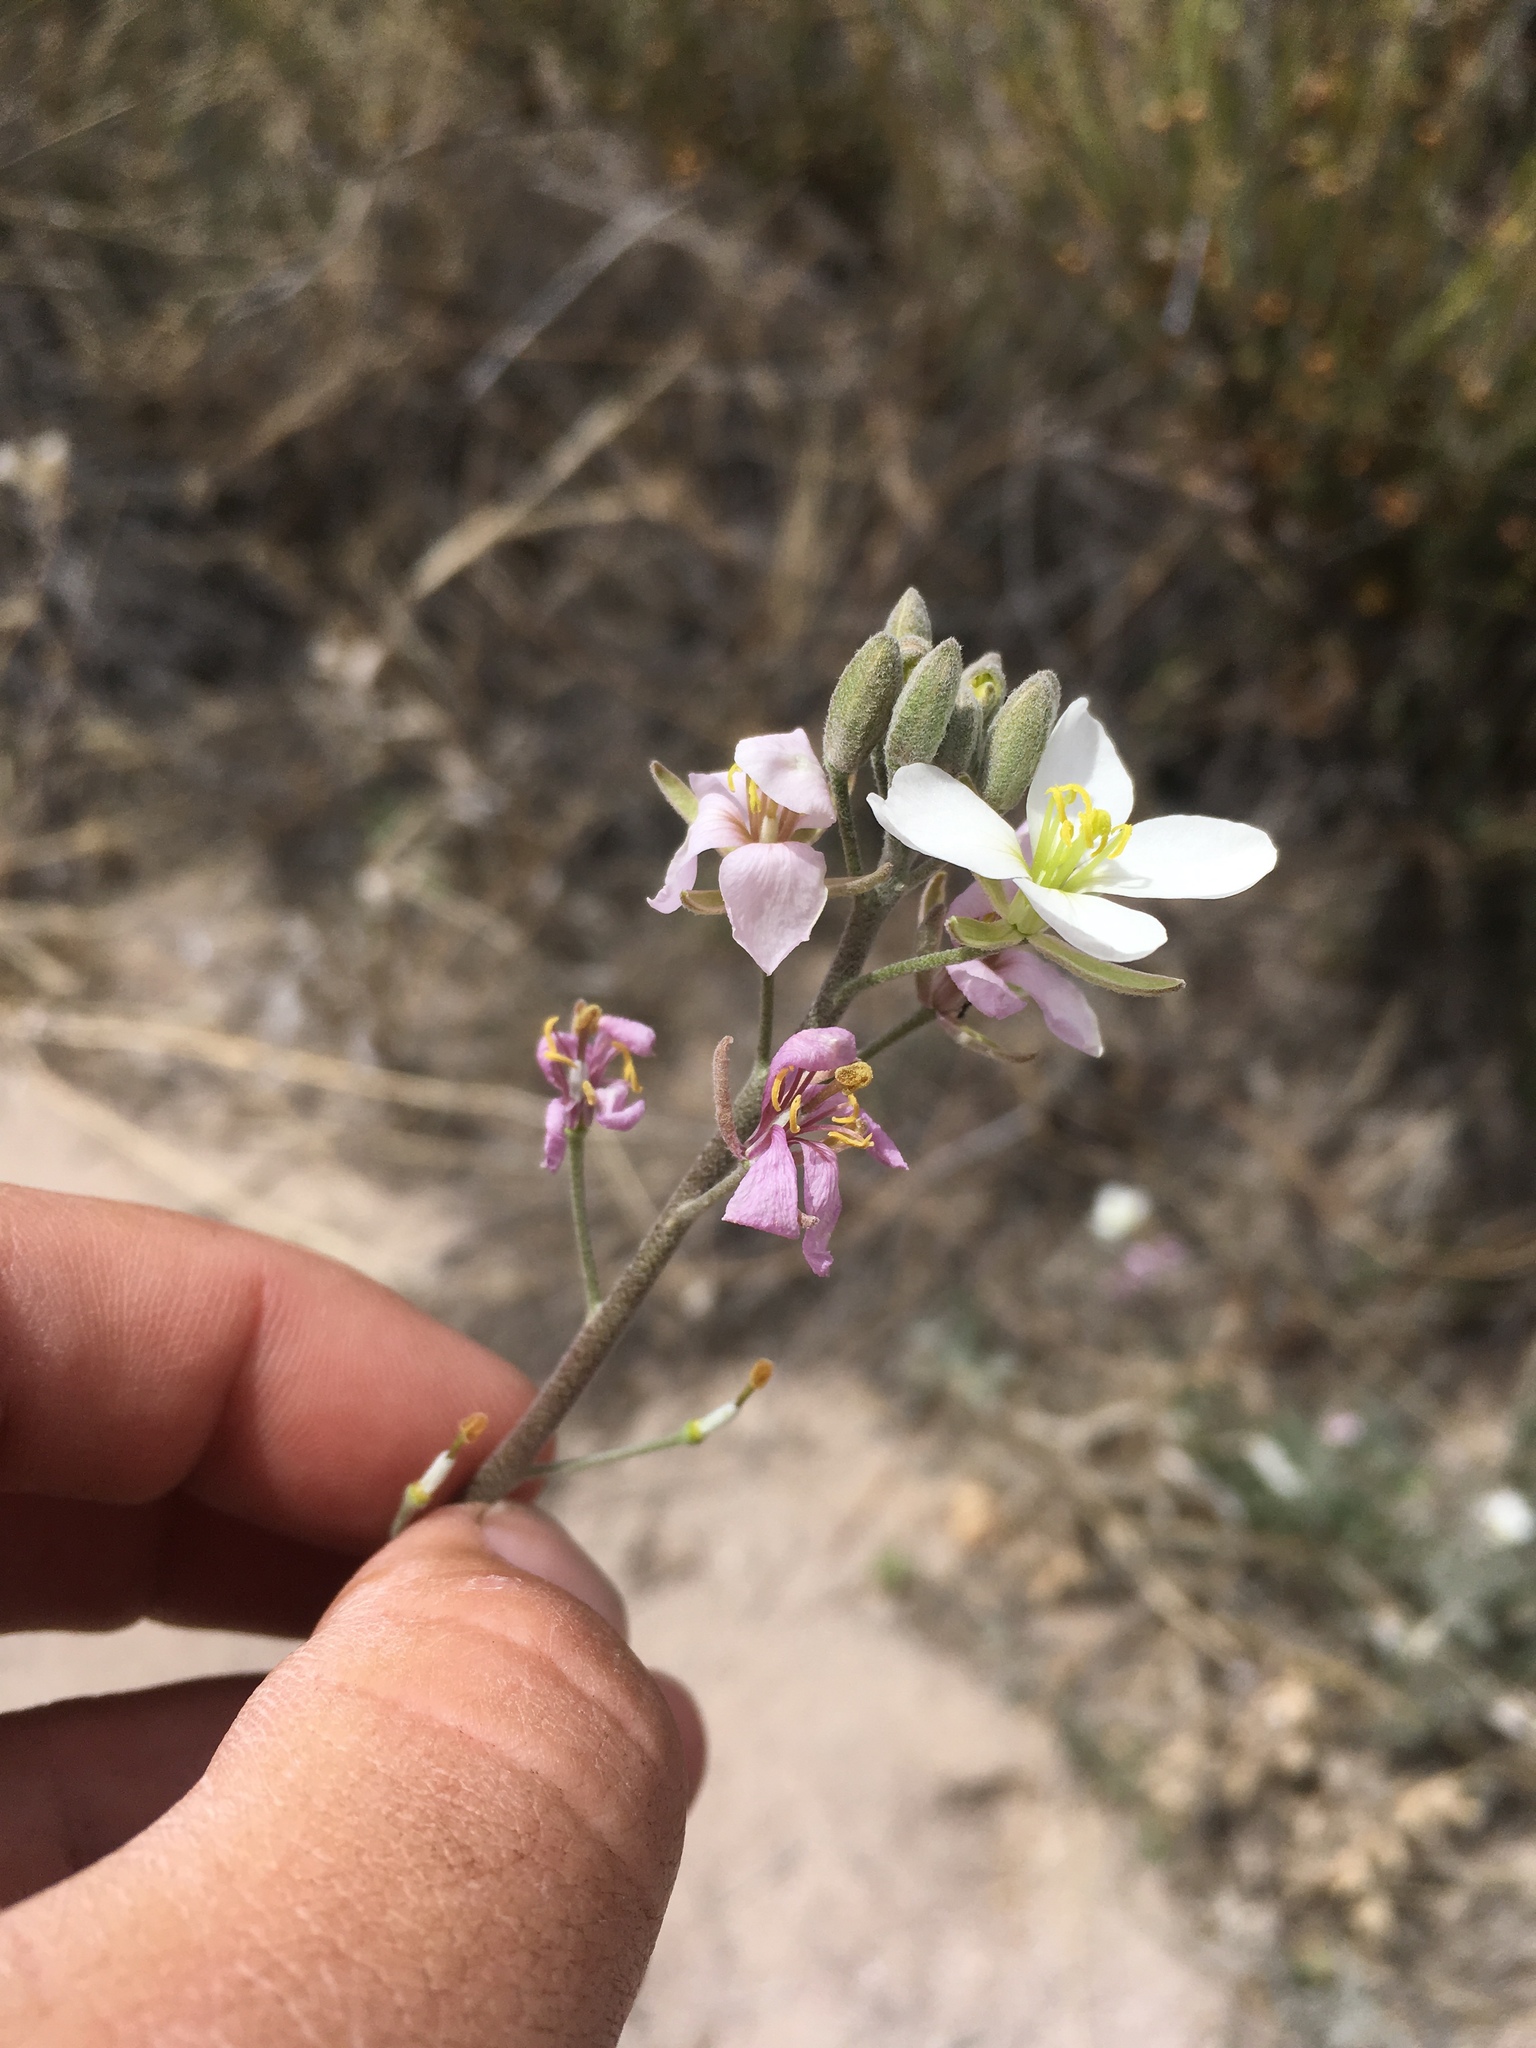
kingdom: Plantae
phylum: Tracheophyta
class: Magnoliopsida
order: Brassicales
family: Brassicaceae
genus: Nerisyrenia
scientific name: Nerisyrenia camporum
